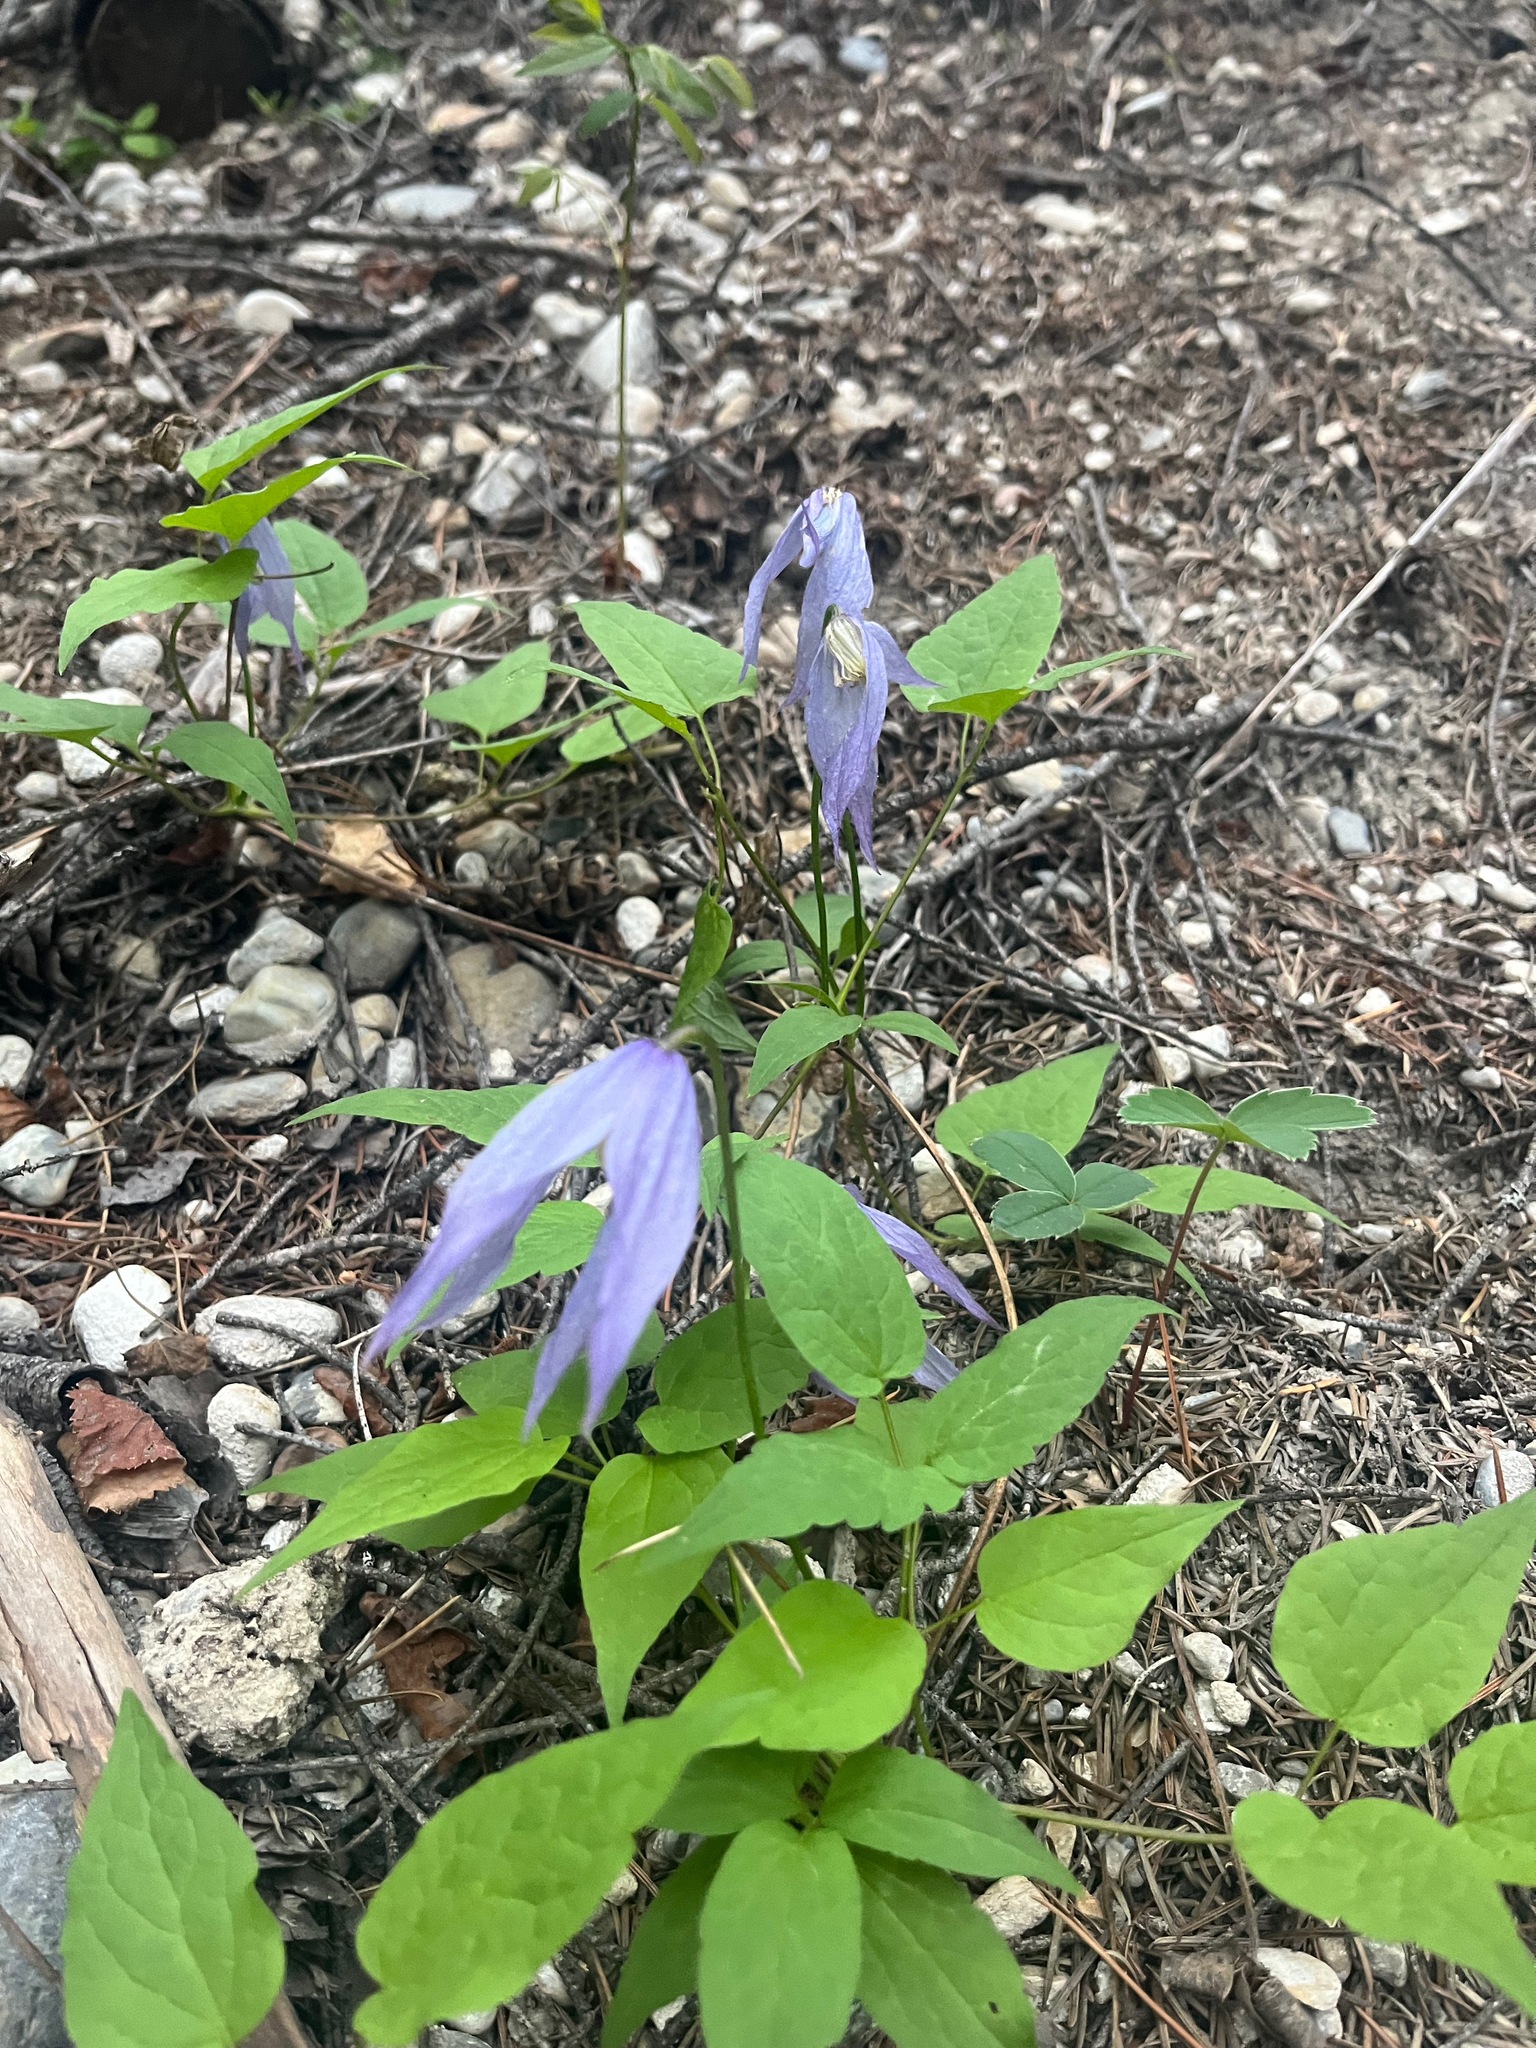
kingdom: Plantae
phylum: Tracheophyta
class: Magnoliopsida
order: Ranunculales
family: Ranunculaceae
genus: Clematis
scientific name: Clematis occidentalis
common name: Purple clematis
